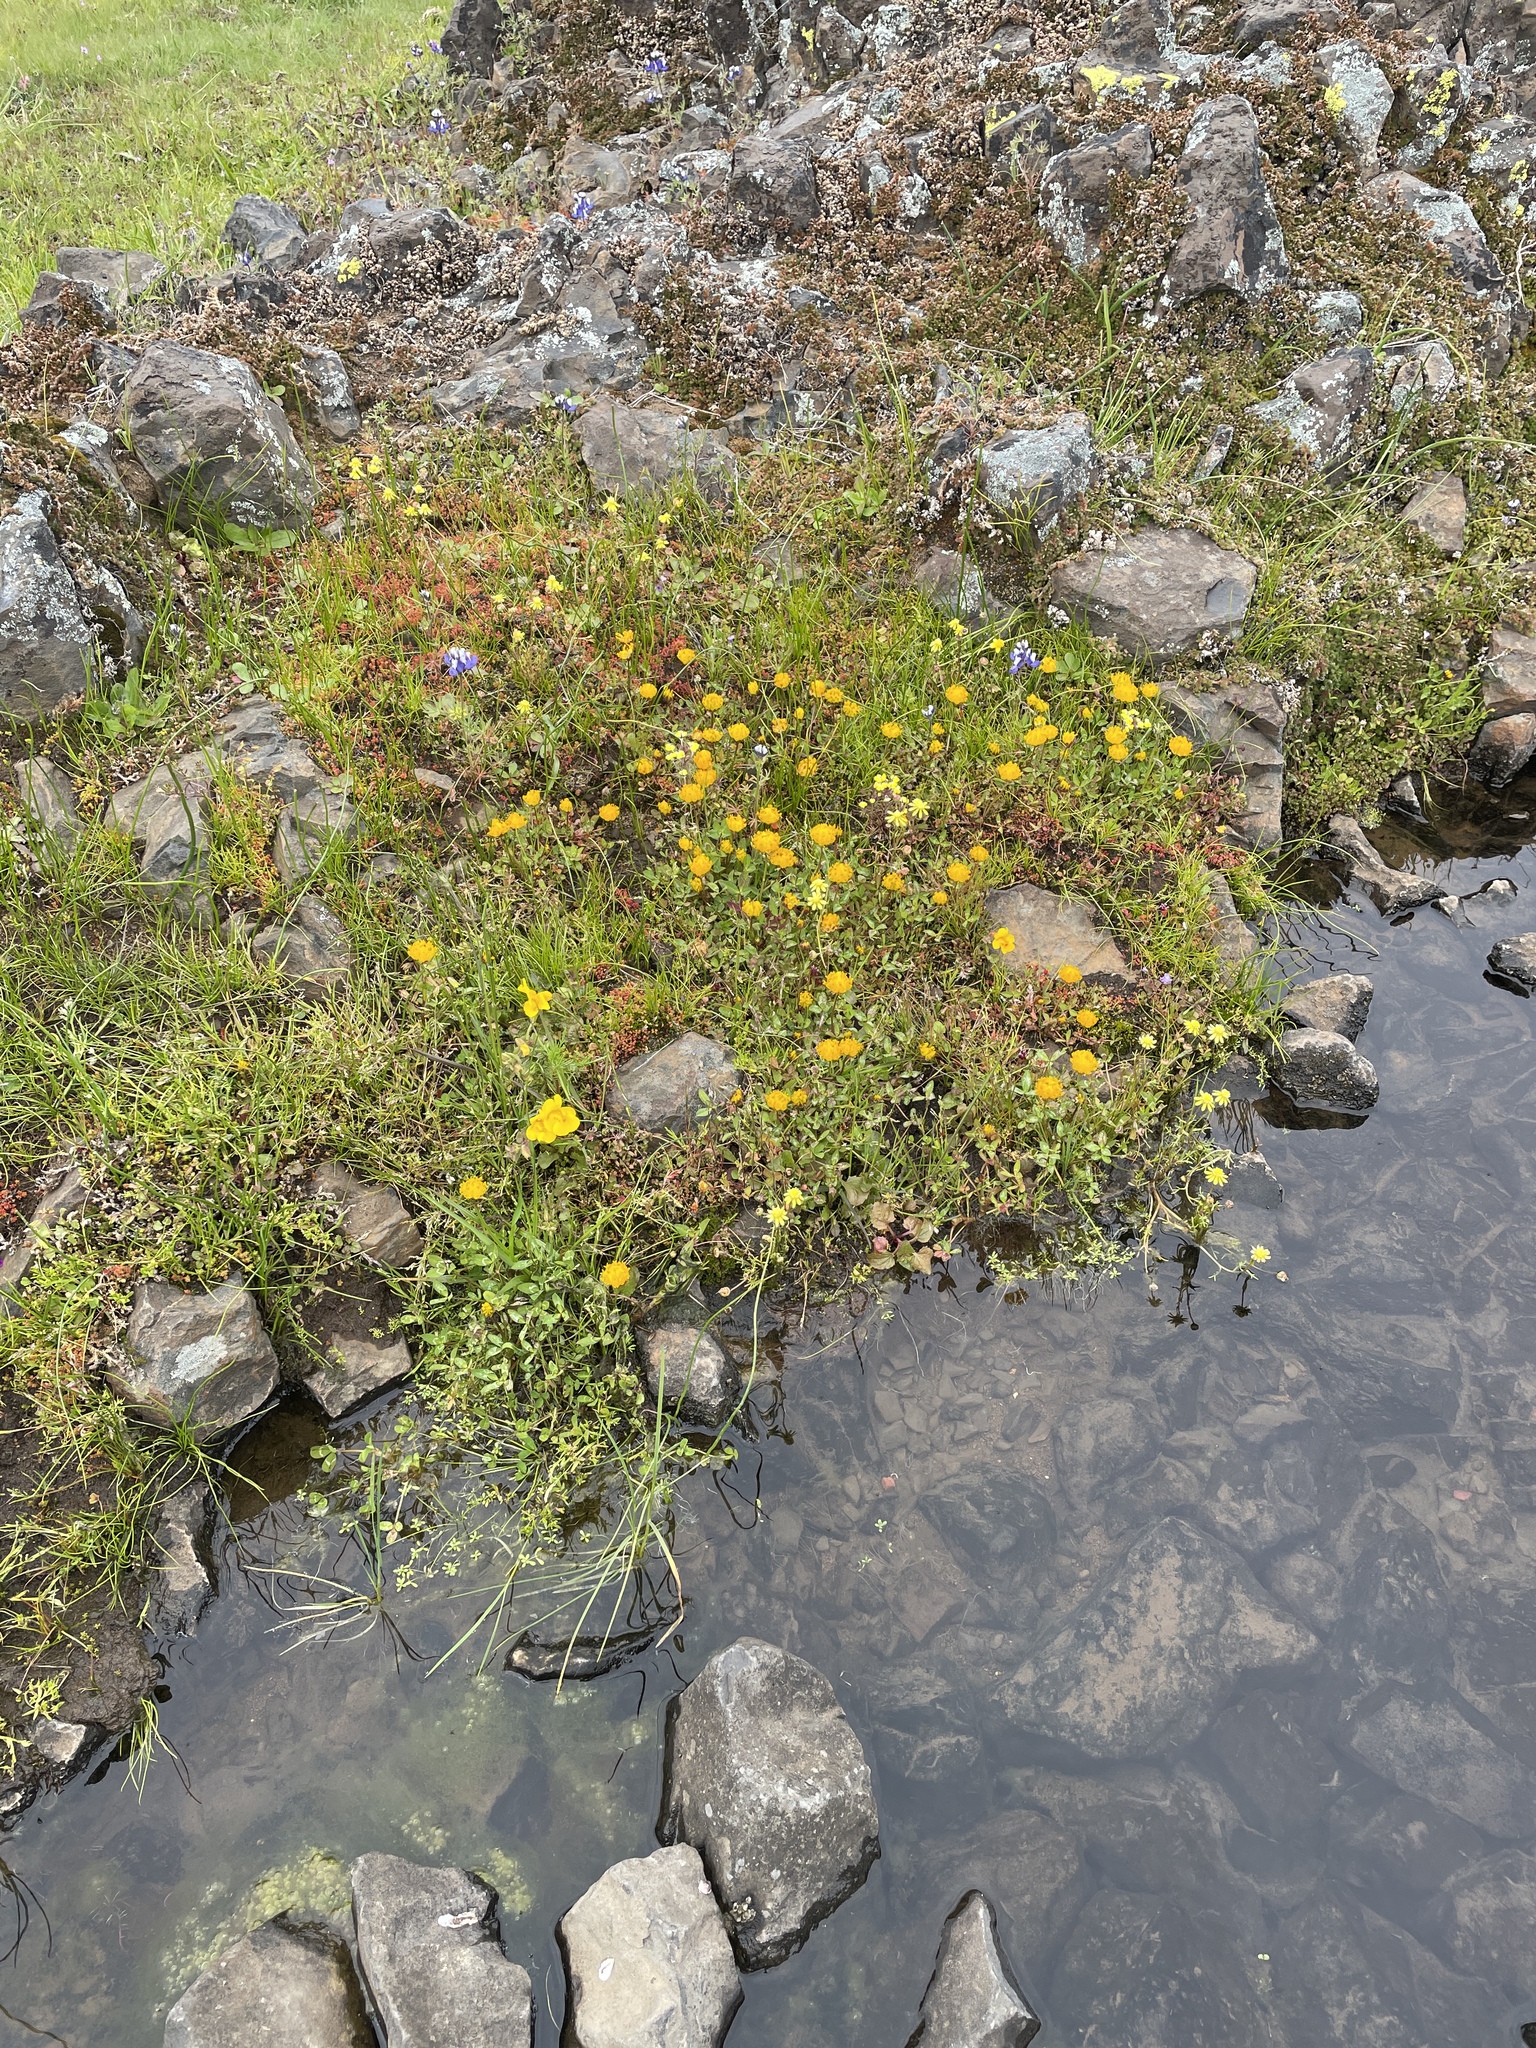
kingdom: Plantae
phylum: Tracheophyta
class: Magnoliopsida
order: Fabales
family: Fabaceae
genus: Trifolium
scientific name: Trifolium jokerstii
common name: Butte county golden clover
